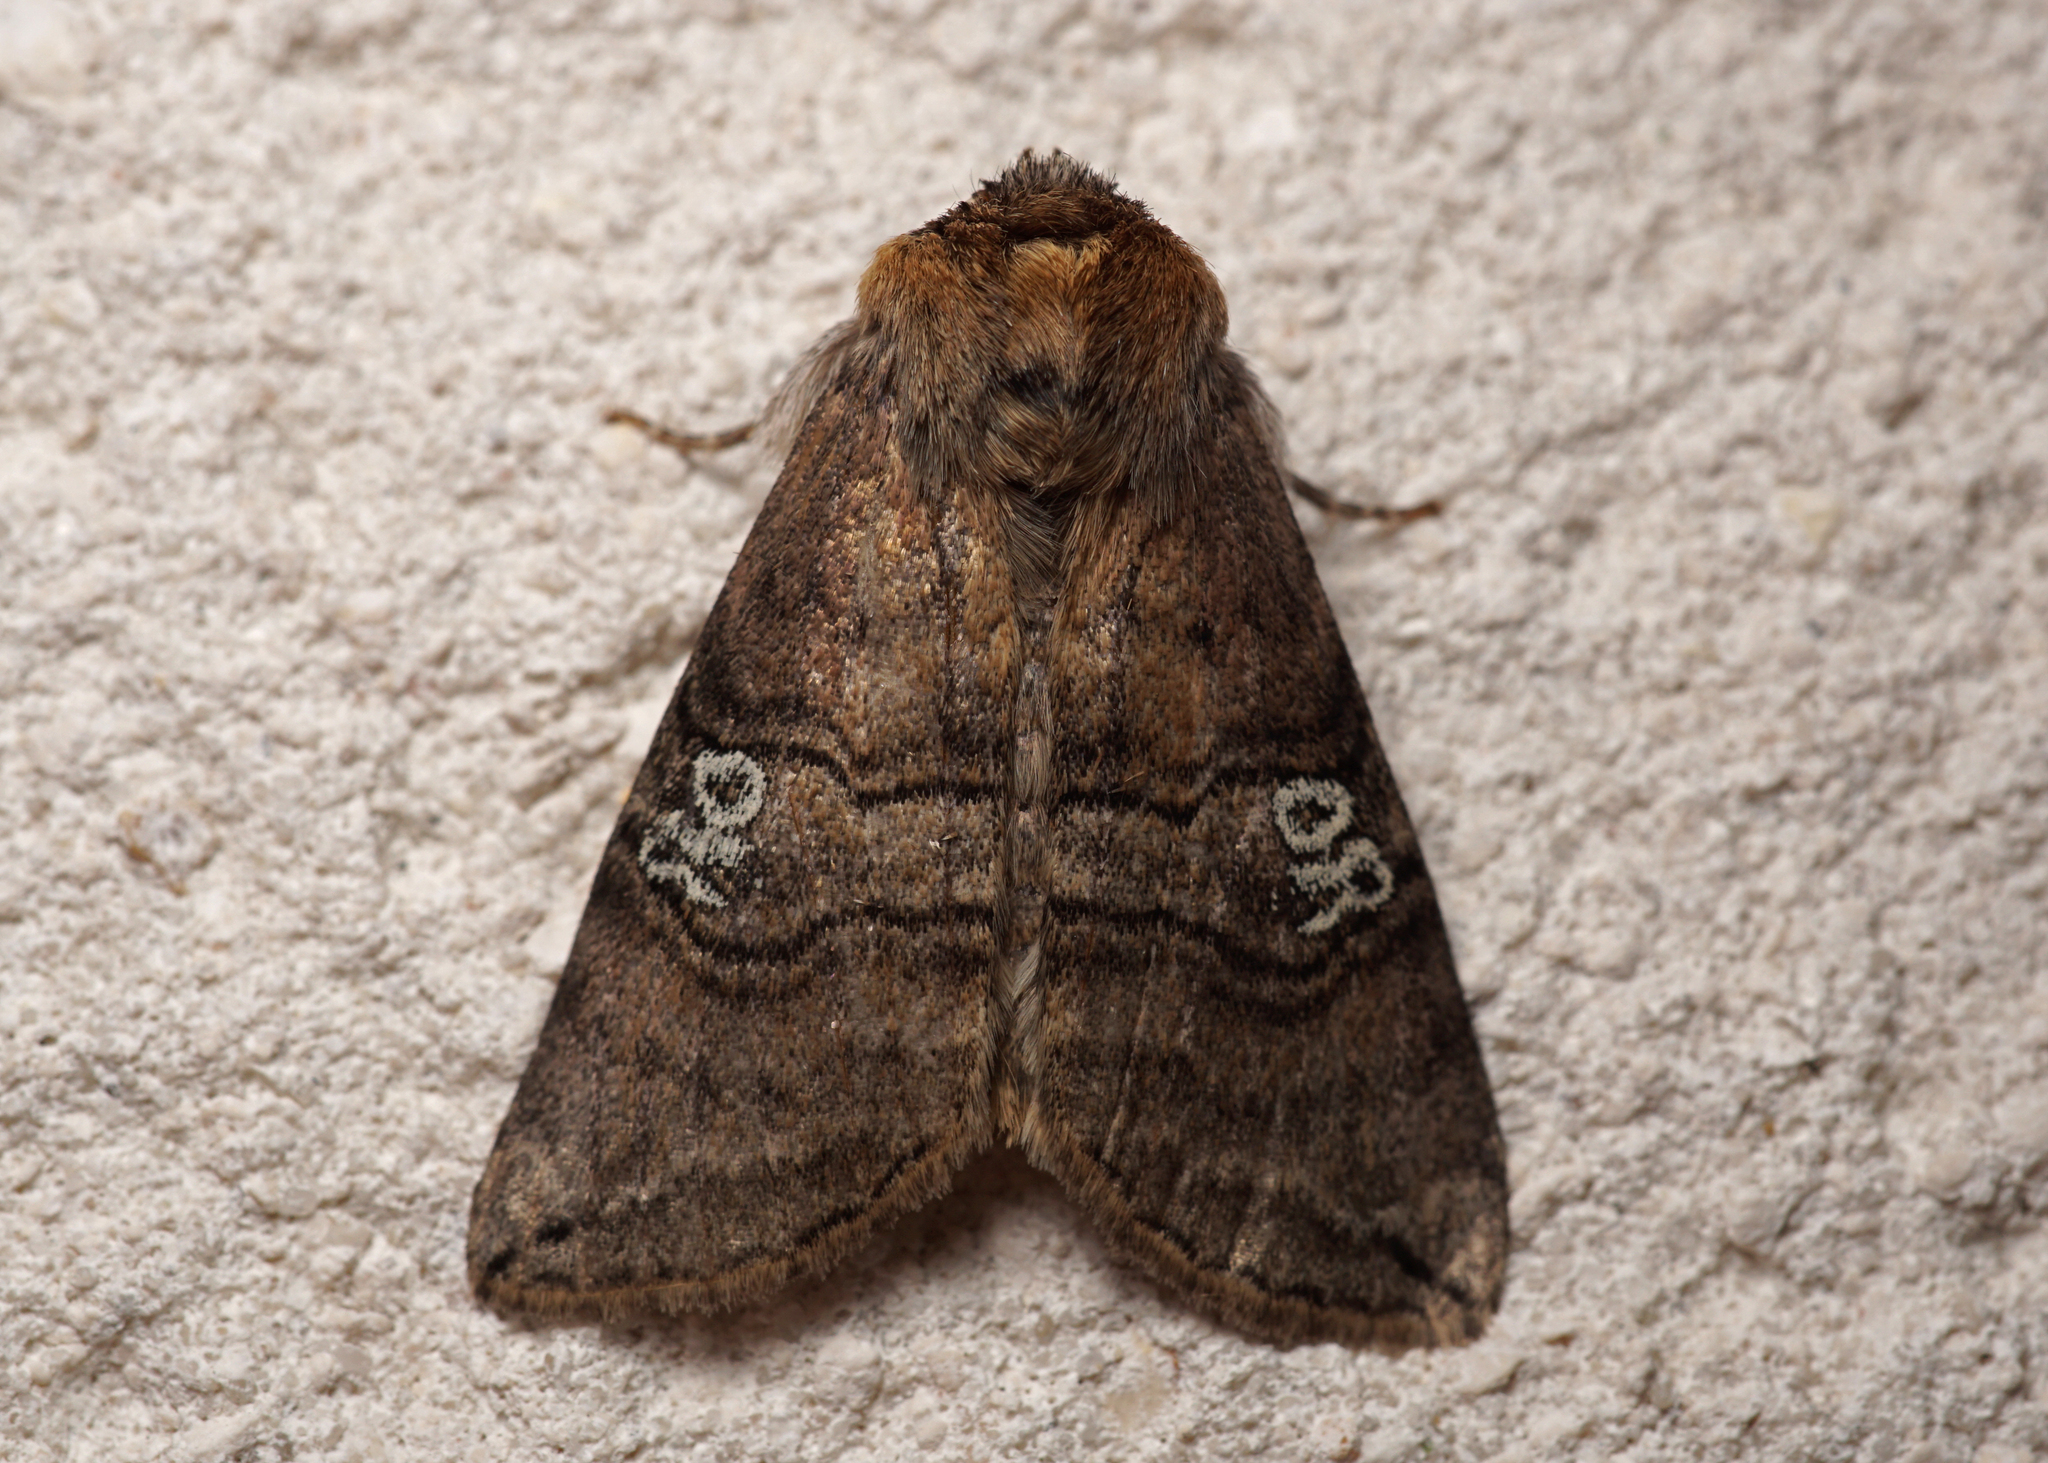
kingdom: Animalia
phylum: Arthropoda
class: Insecta
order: Lepidoptera
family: Drepanidae
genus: Tethea
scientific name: Tethea ocularis
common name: Figure of eighty
